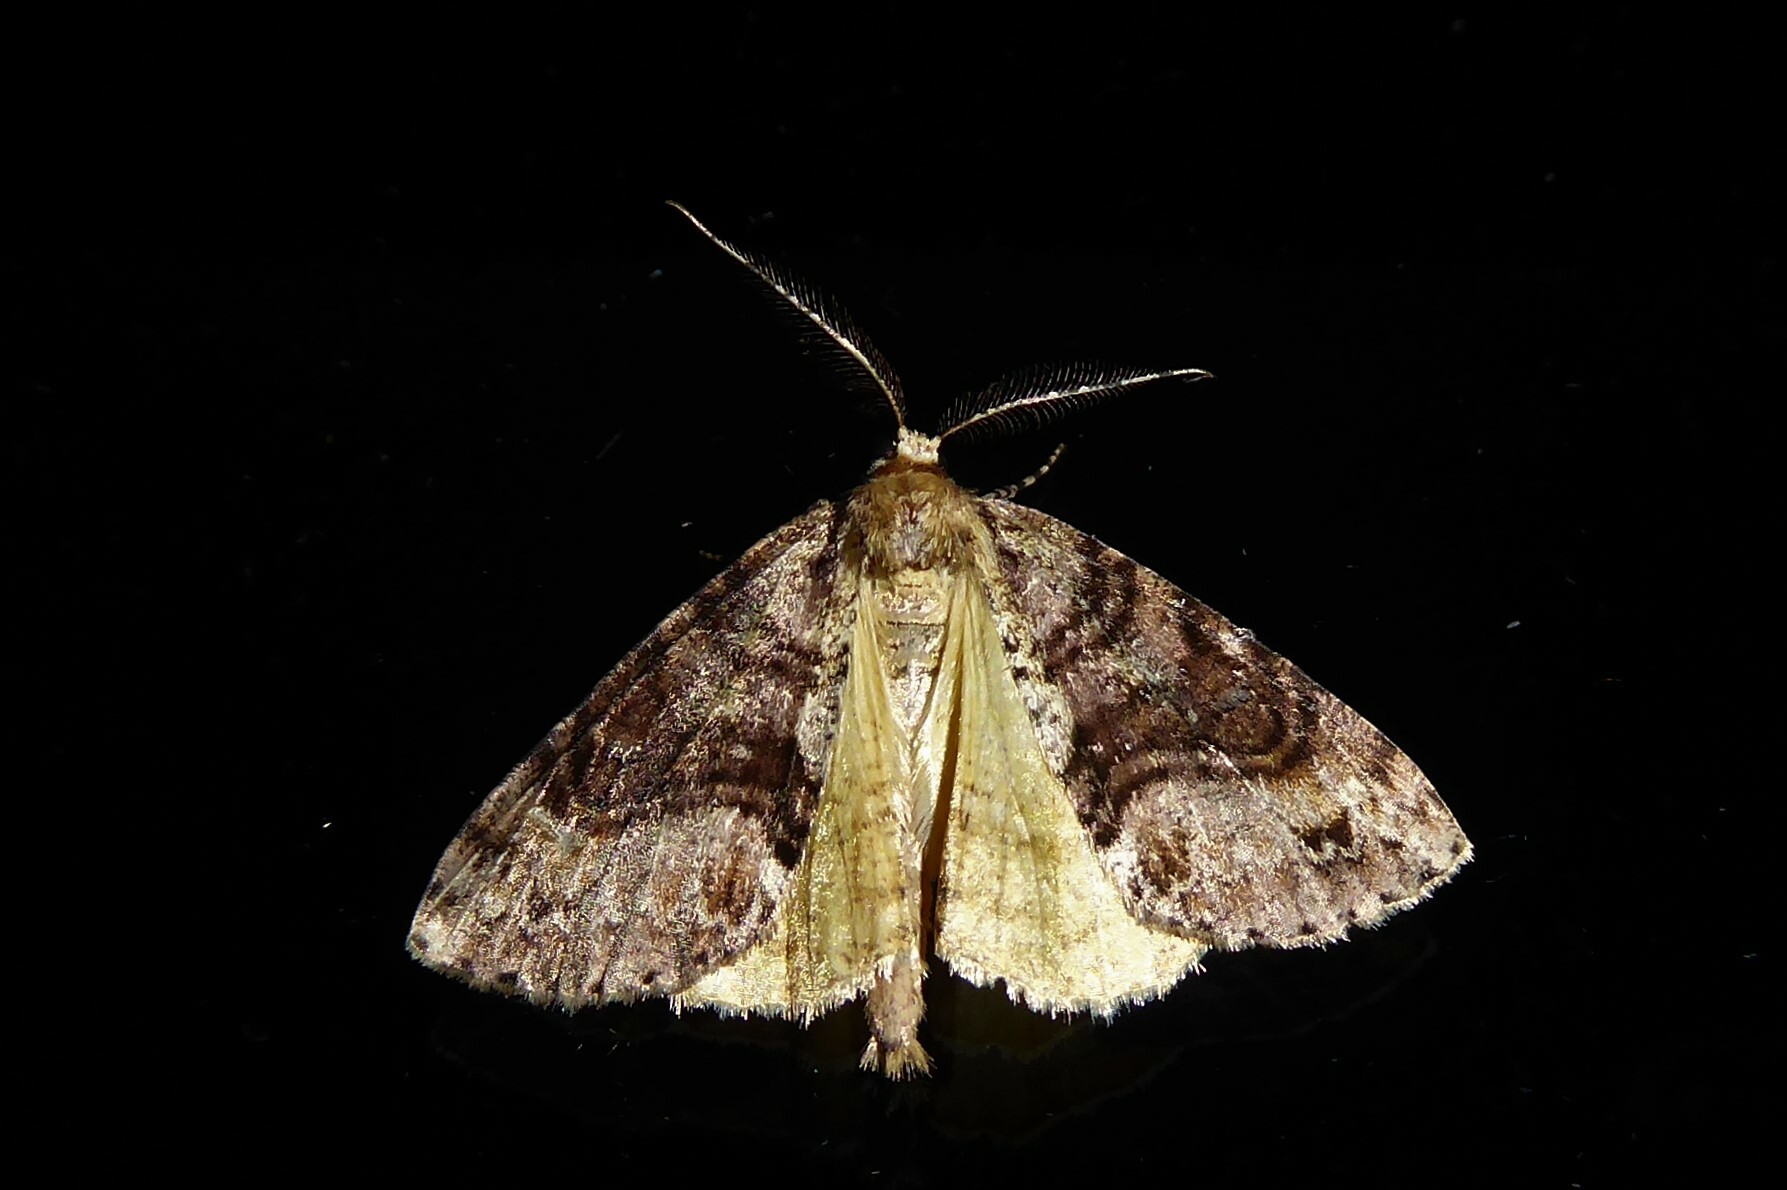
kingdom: Animalia
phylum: Arthropoda
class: Insecta
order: Lepidoptera
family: Geometridae
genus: Pseudocoremia
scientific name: Pseudocoremia suavis
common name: Common forest looper
